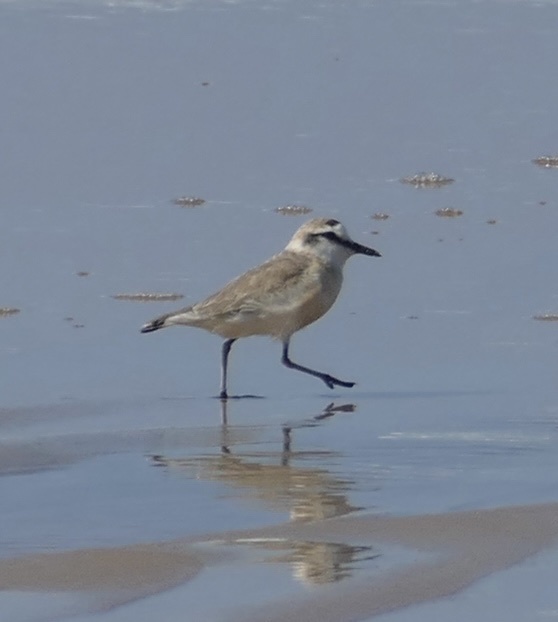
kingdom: Animalia
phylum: Chordata
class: Aves
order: Charadriiformes
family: Charadriidae
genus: Anarhynchus
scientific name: Anarhynchus
